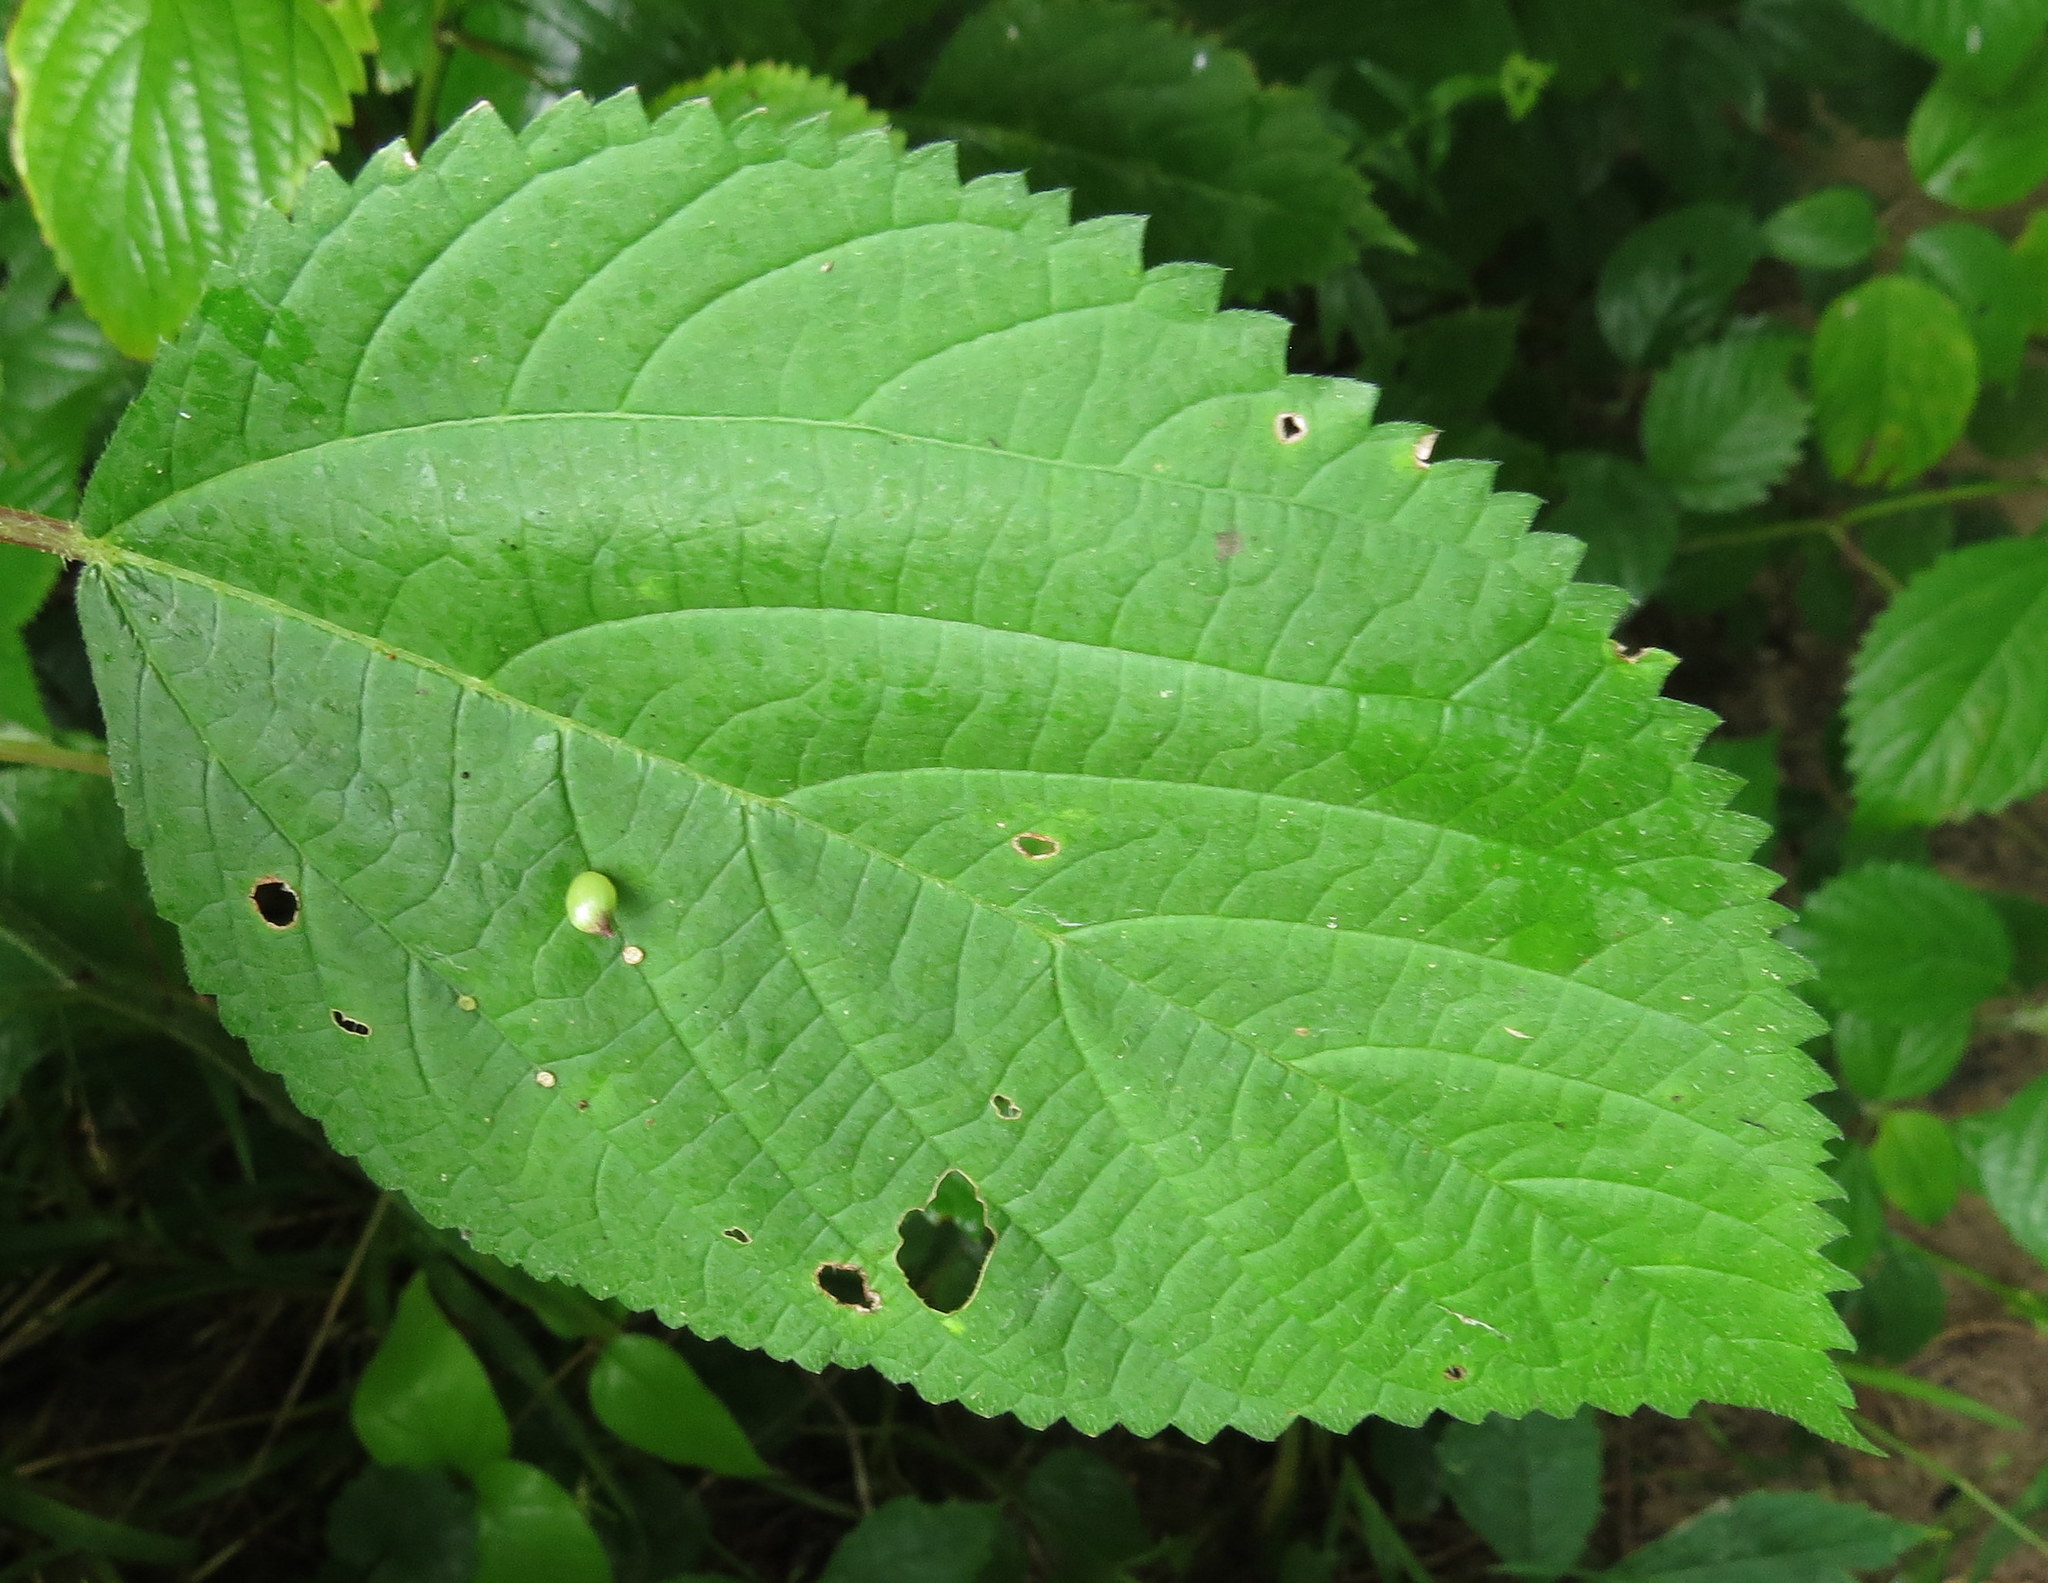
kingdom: Animalia
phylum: Arthropoda
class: Insecta
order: Diptera
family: Cecidomyiidae
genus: Dasineura
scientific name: Dasineura investita
